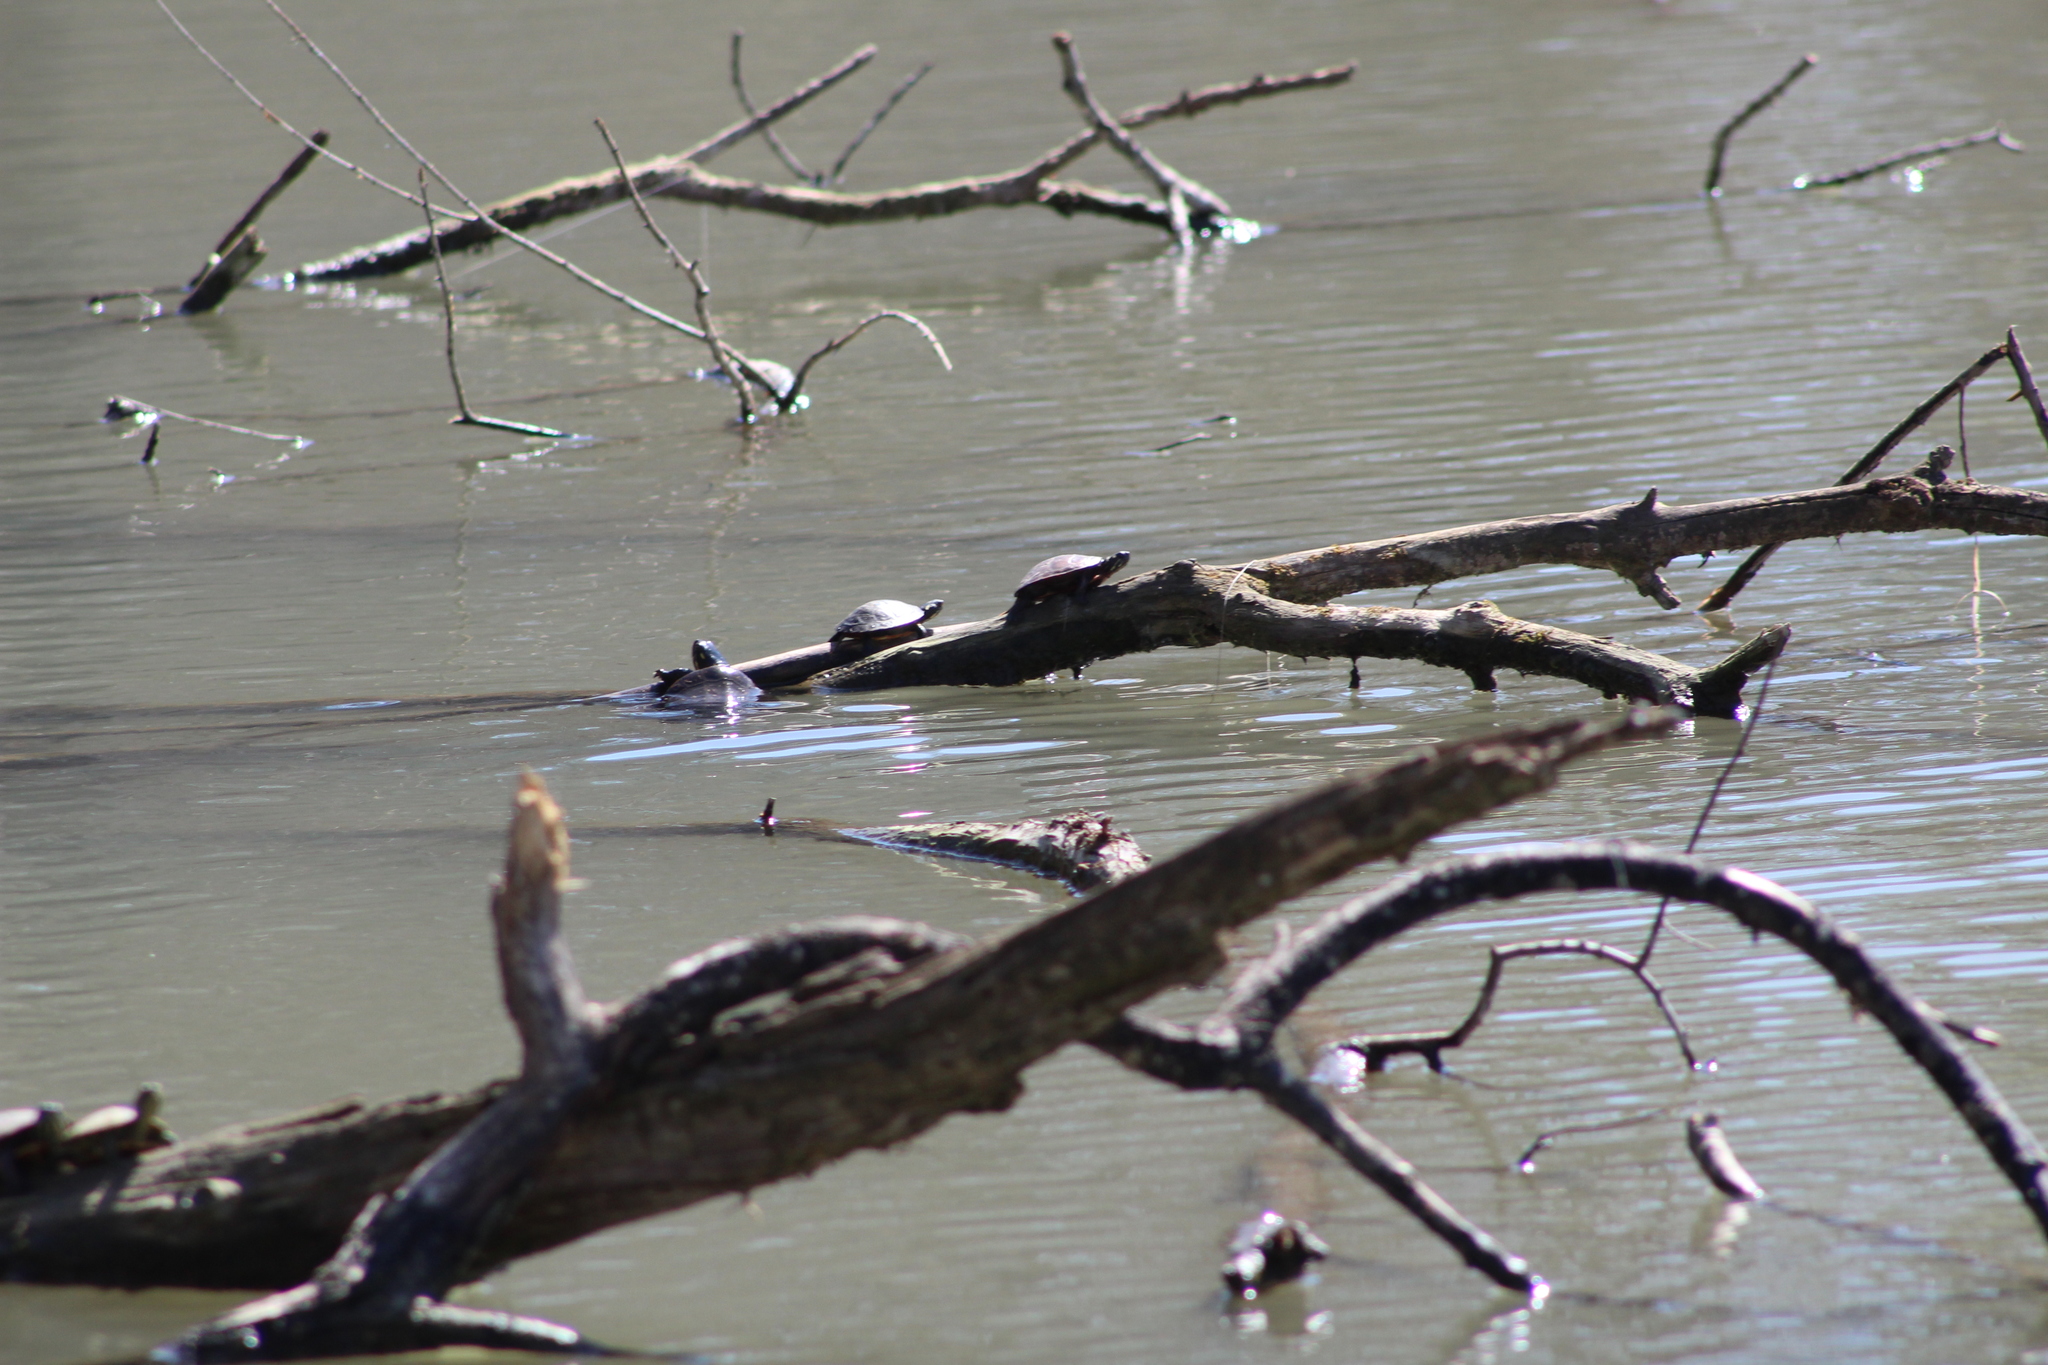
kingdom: Animalia
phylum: Chordata
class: Testudines
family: Emydidae
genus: Chrysemys
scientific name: Chrysemys picta
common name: Painted turtle
